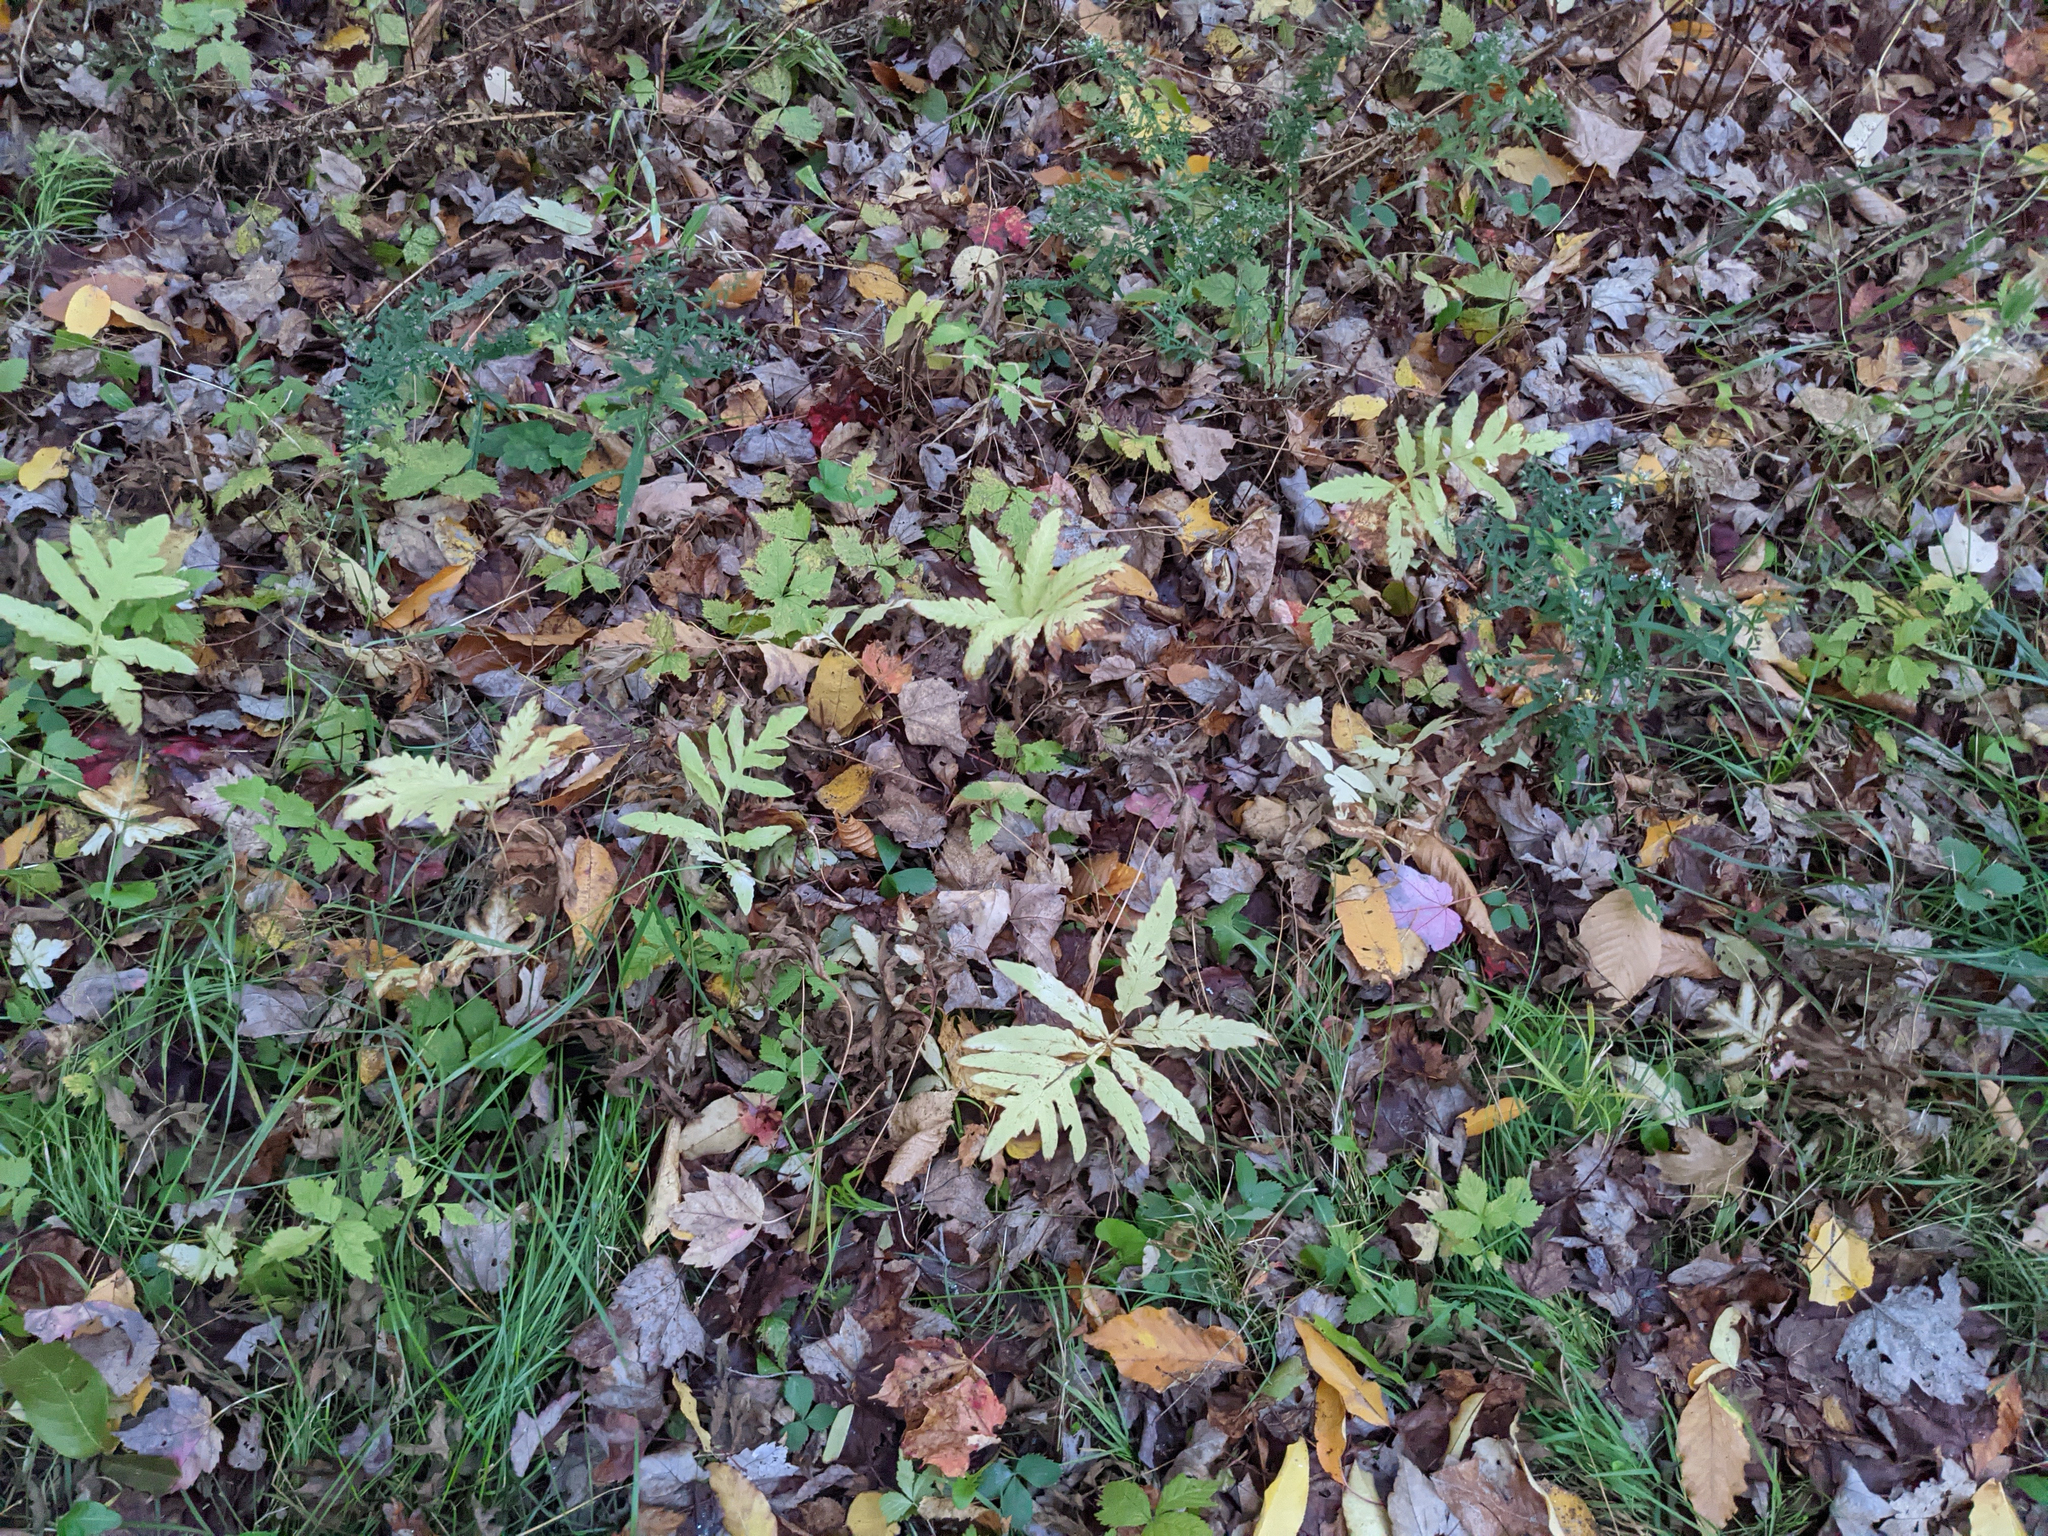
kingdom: Plantae
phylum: Tracheophyta
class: Polypodiopsida
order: Polypodiales
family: Onocleaceae
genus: Onoclea
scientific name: Onoclea sensibilis
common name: Sensitive fern
